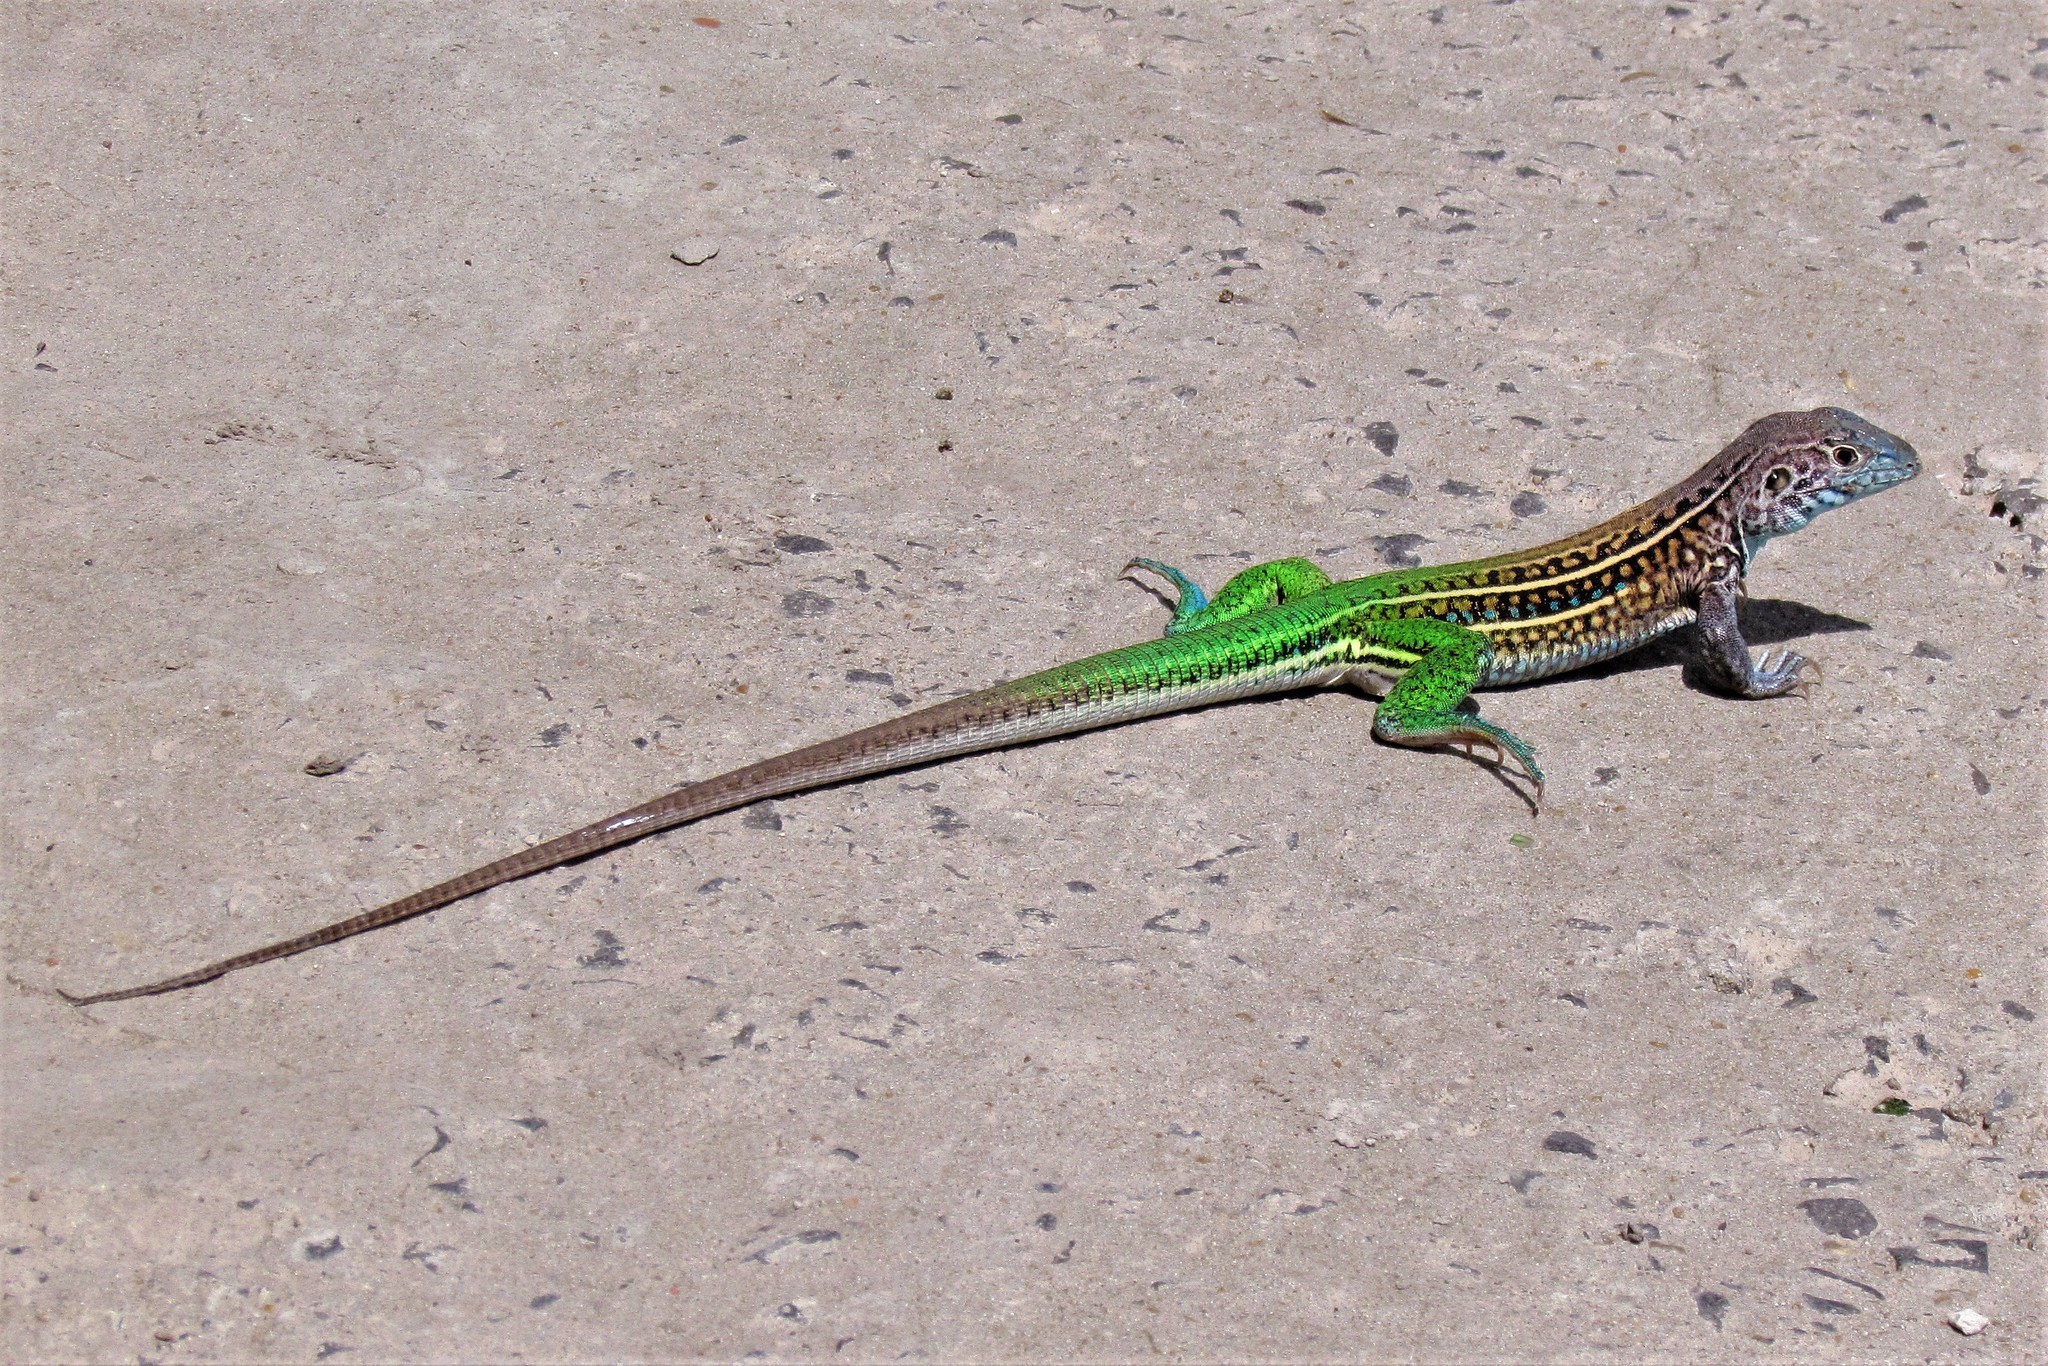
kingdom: Animalia
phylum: Chordata
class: Squamata
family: Teiidae
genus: Teius
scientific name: Teius teyou
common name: Four-toed tegu
